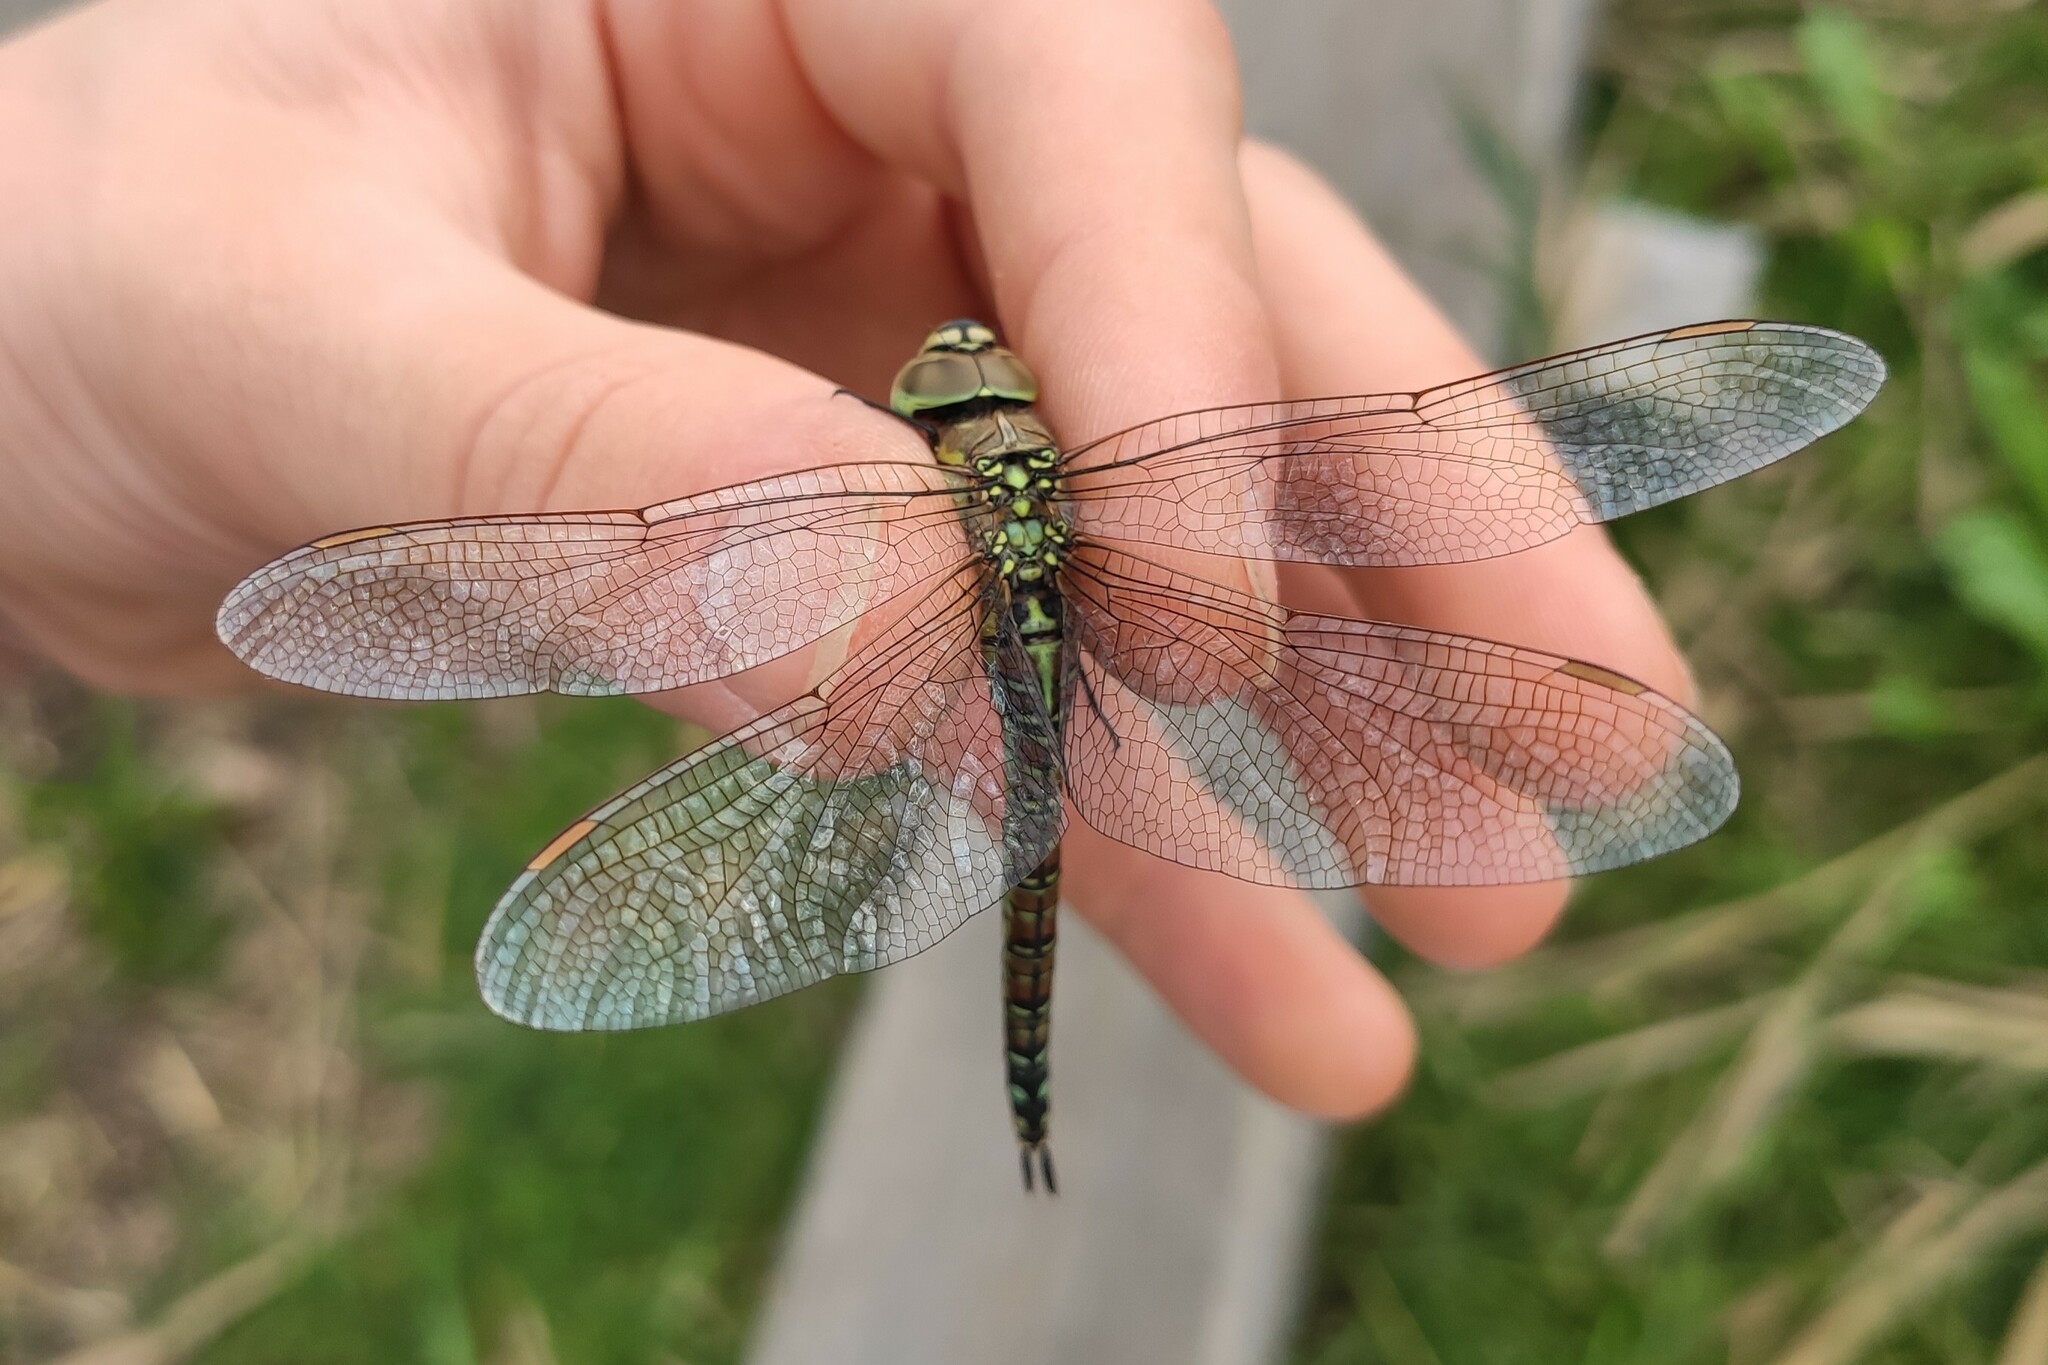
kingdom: Animalia
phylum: Arthropoda
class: Insecta
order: Odonata
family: Aeshnidae
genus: Aeshna
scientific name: Aeshna affinis
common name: Southern migrant hawker
